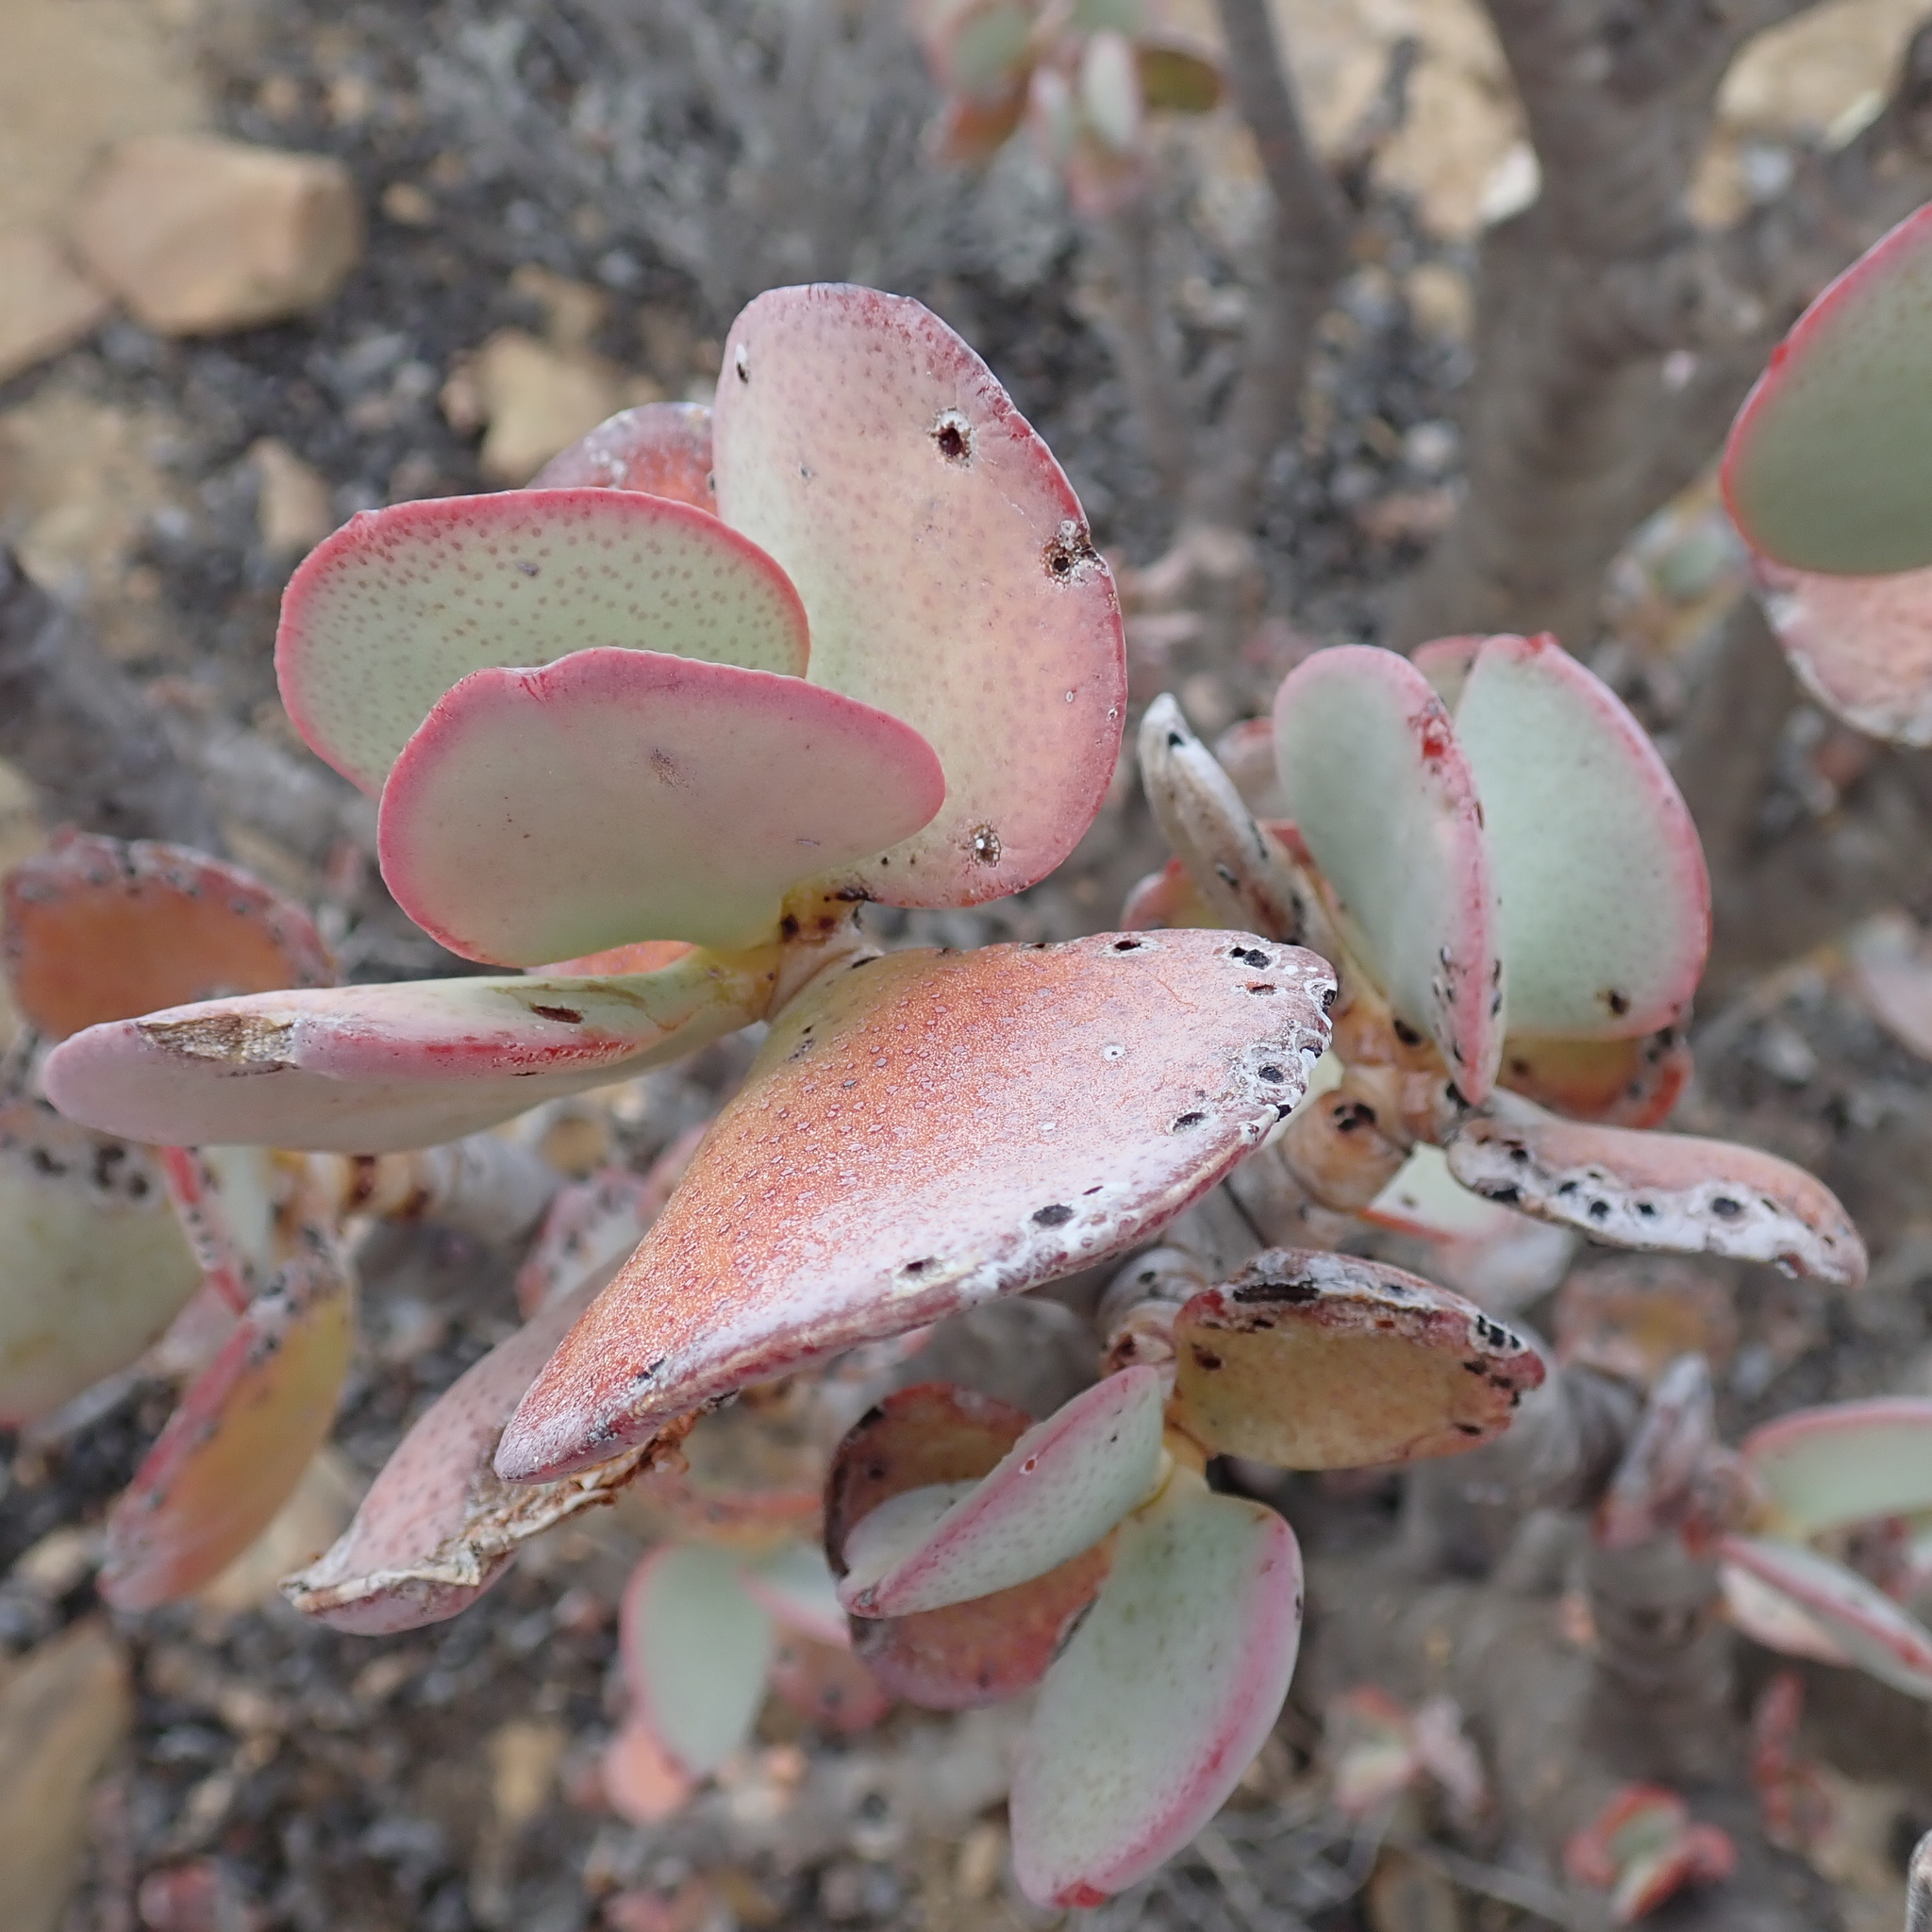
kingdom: Plantae
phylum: Tracheophyta
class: Magnoliopsida
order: Saxifragales
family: Crassulaceae
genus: Crassula
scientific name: Crassula arborescens
